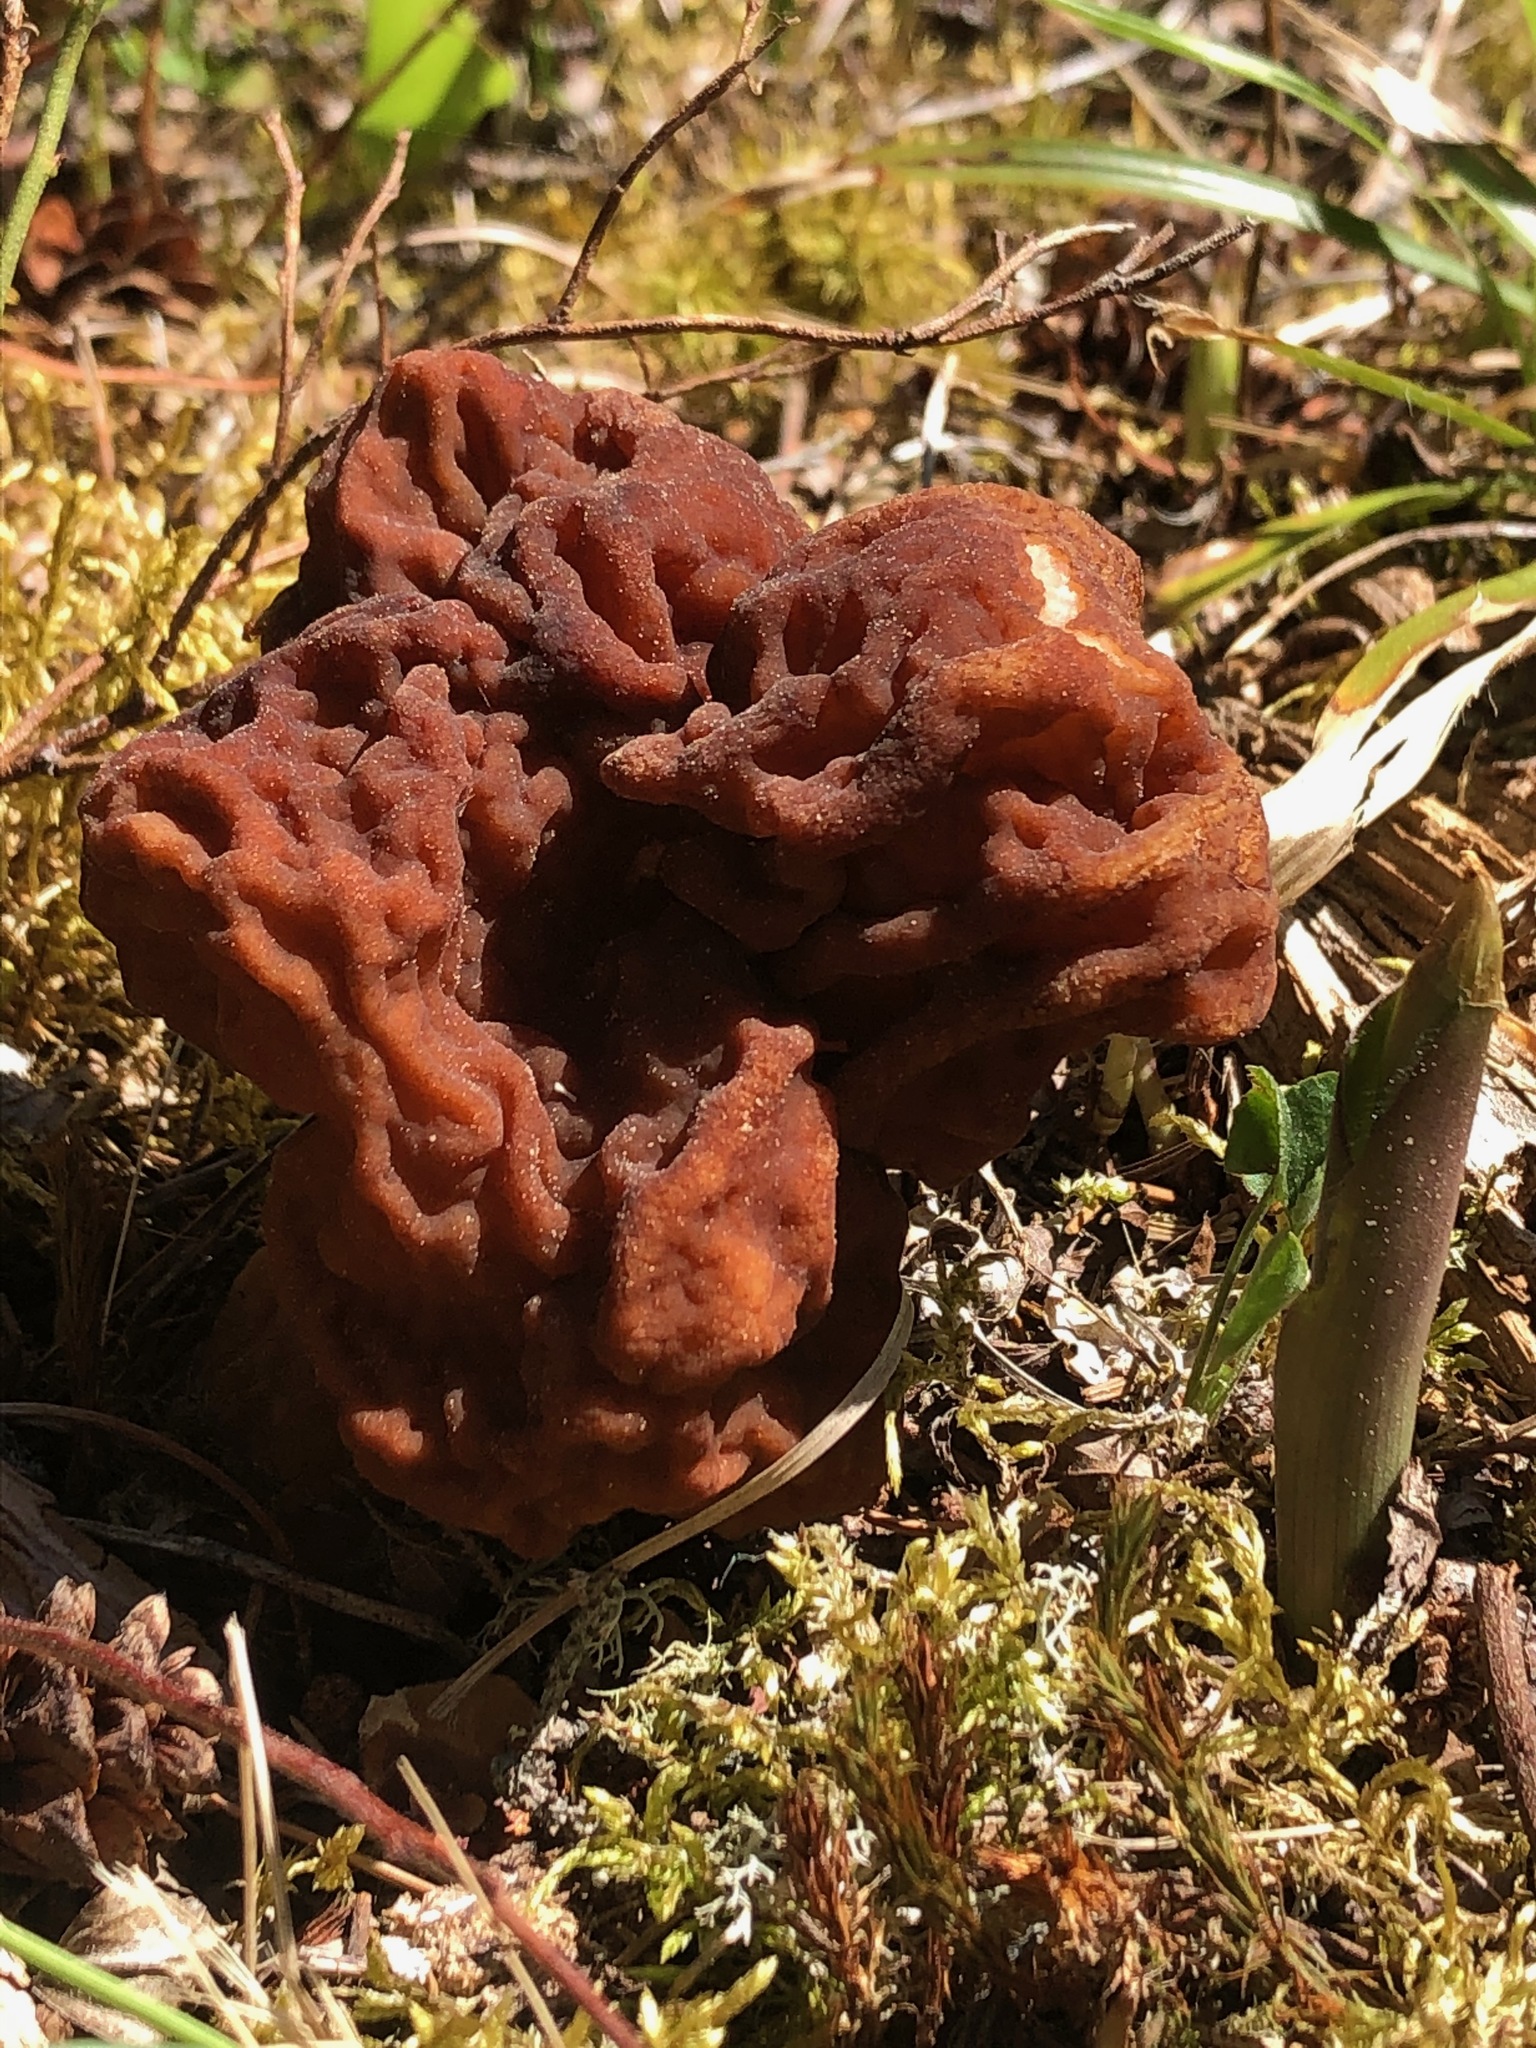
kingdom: Fungi
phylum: Ascomycota
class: Pezizomycetes
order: Pezizales
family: Discinaceae
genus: Gyromitra
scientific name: Gyromitra esculenta
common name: False morel
